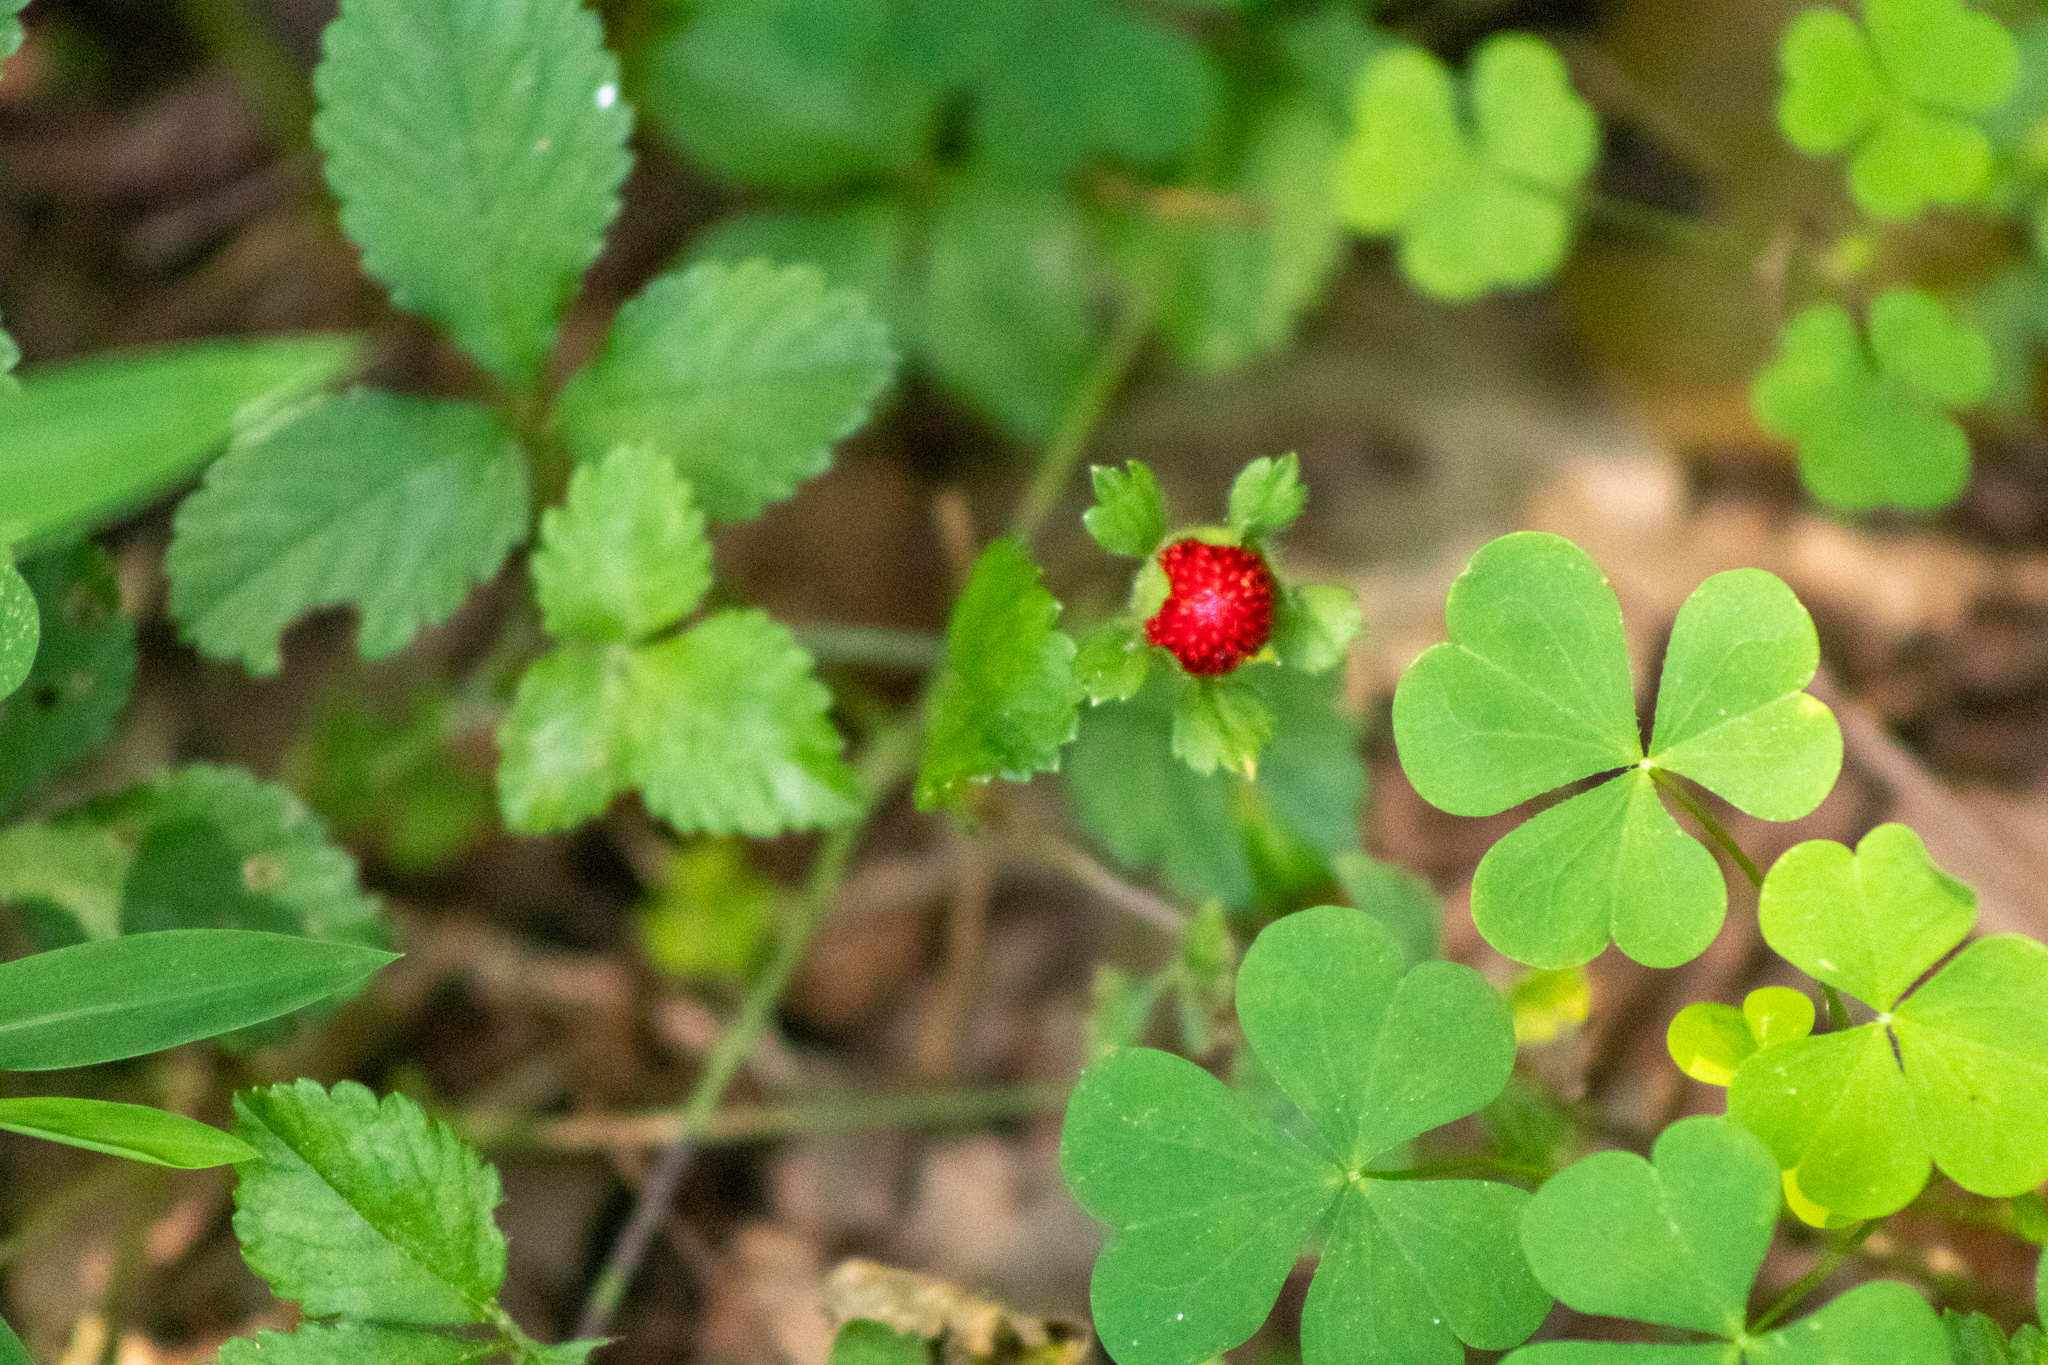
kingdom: Plantae
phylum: Tracheophyta
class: Magnoliopsida
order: Rosales
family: Rosaceae
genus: Potentilla
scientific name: Potentilla indica
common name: Yellow-flowered strawberry
